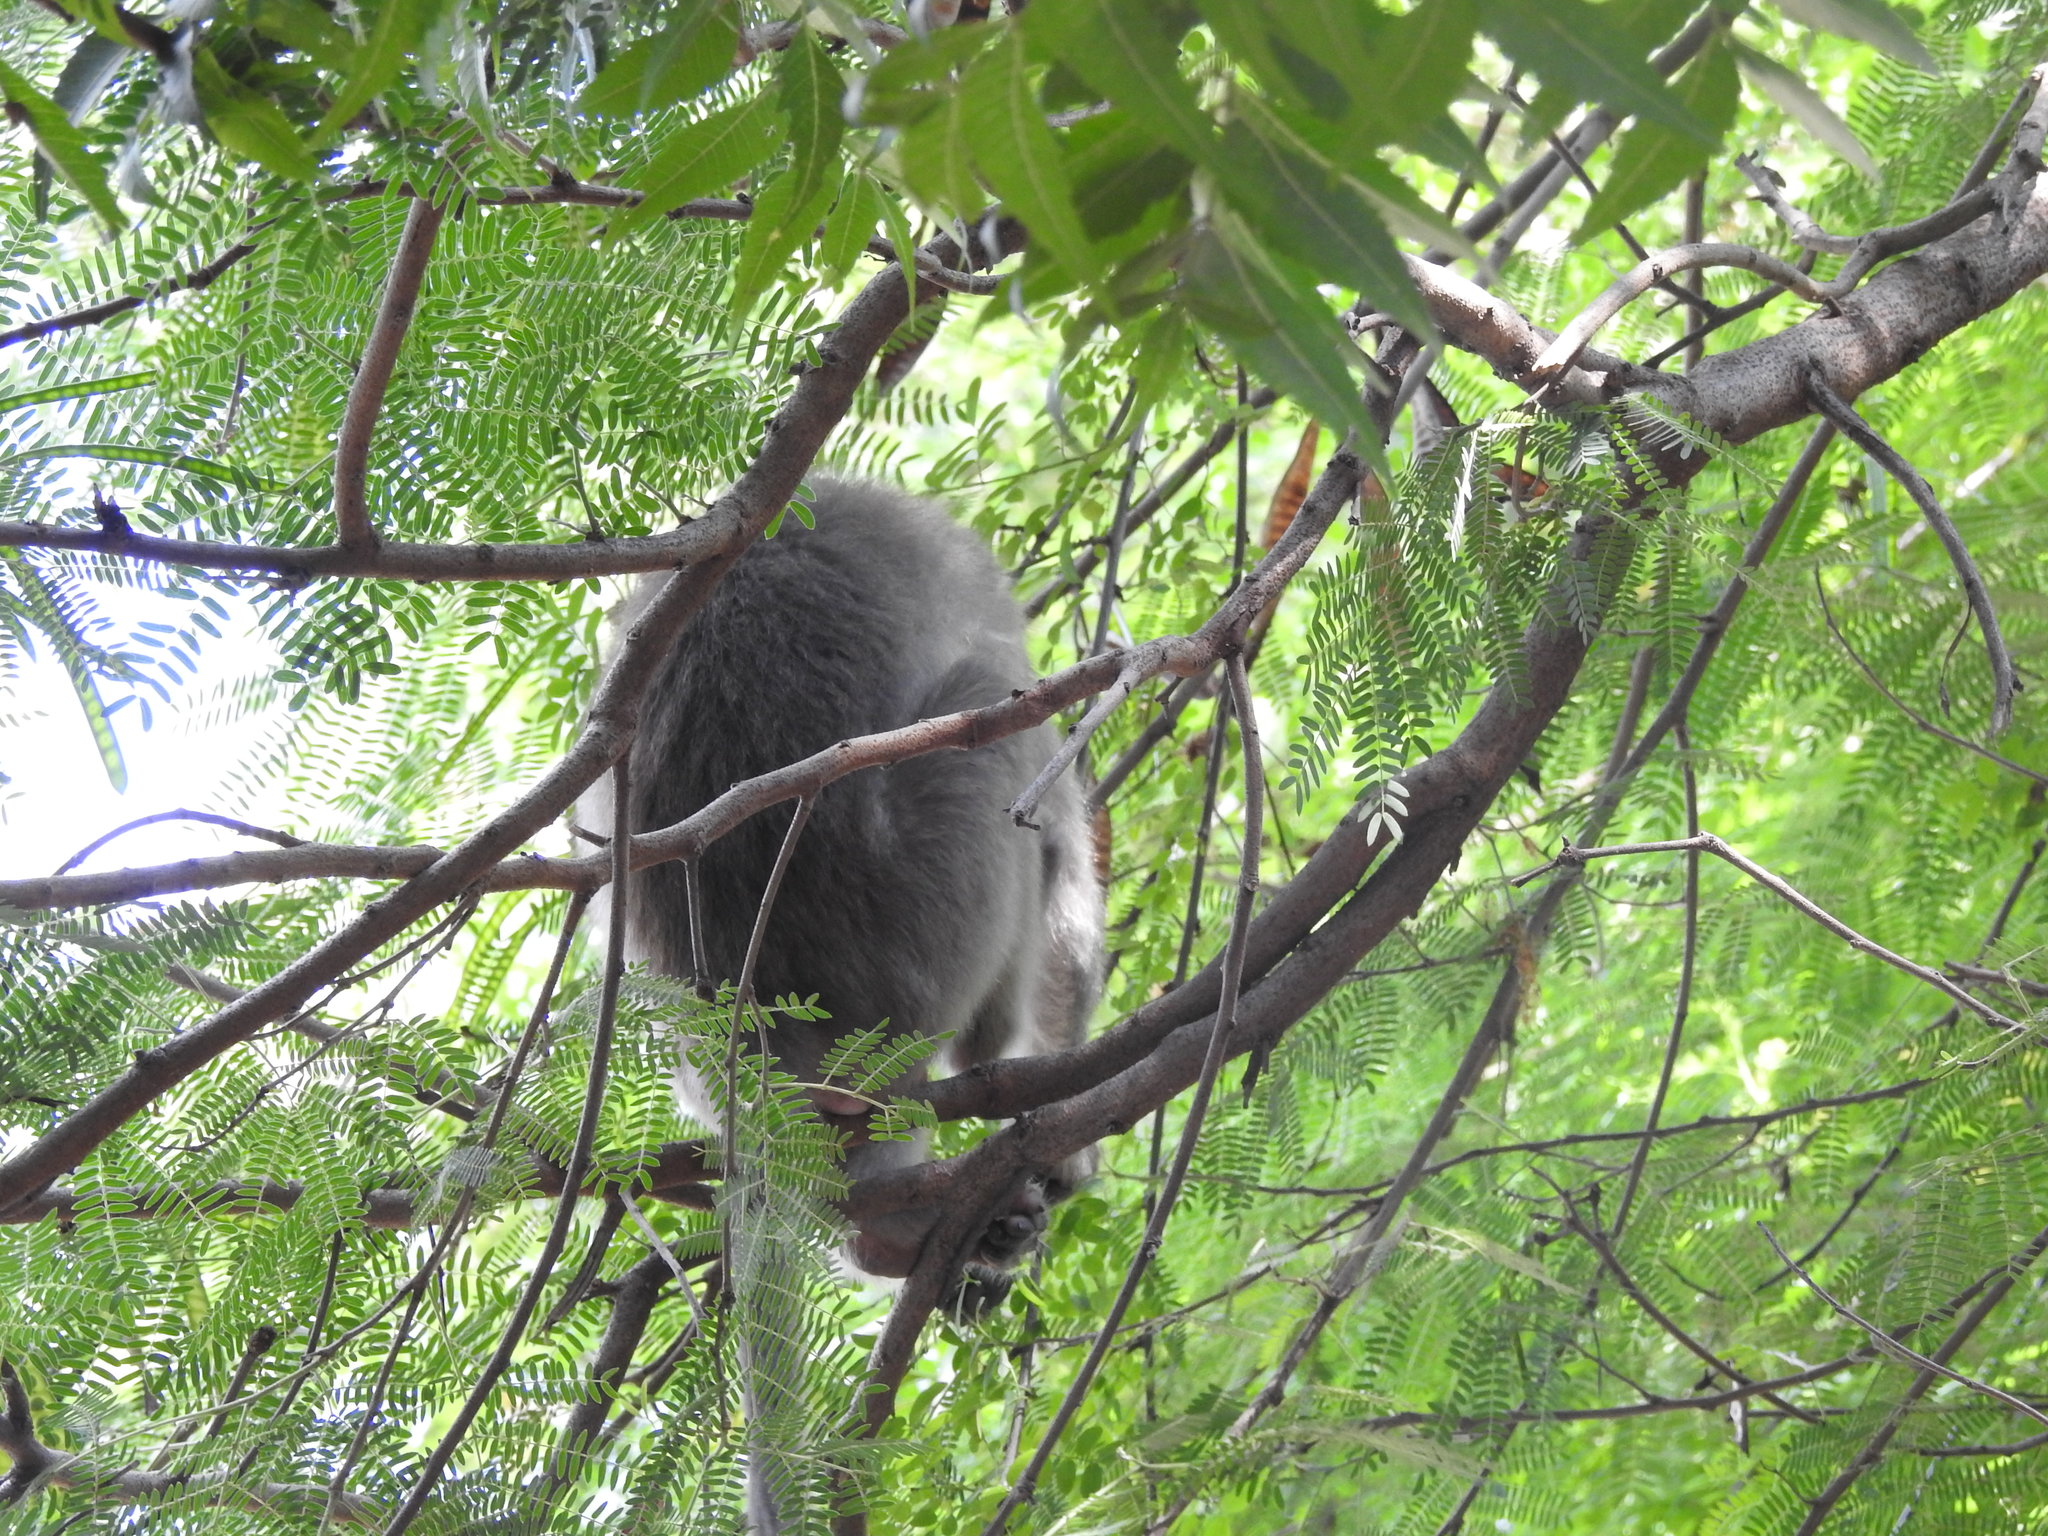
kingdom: Animalia
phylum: Chordata
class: Mammalia
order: Primates
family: Cercopithecidae
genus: Macaca
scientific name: Macaca radiata
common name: Bonnet macaque
